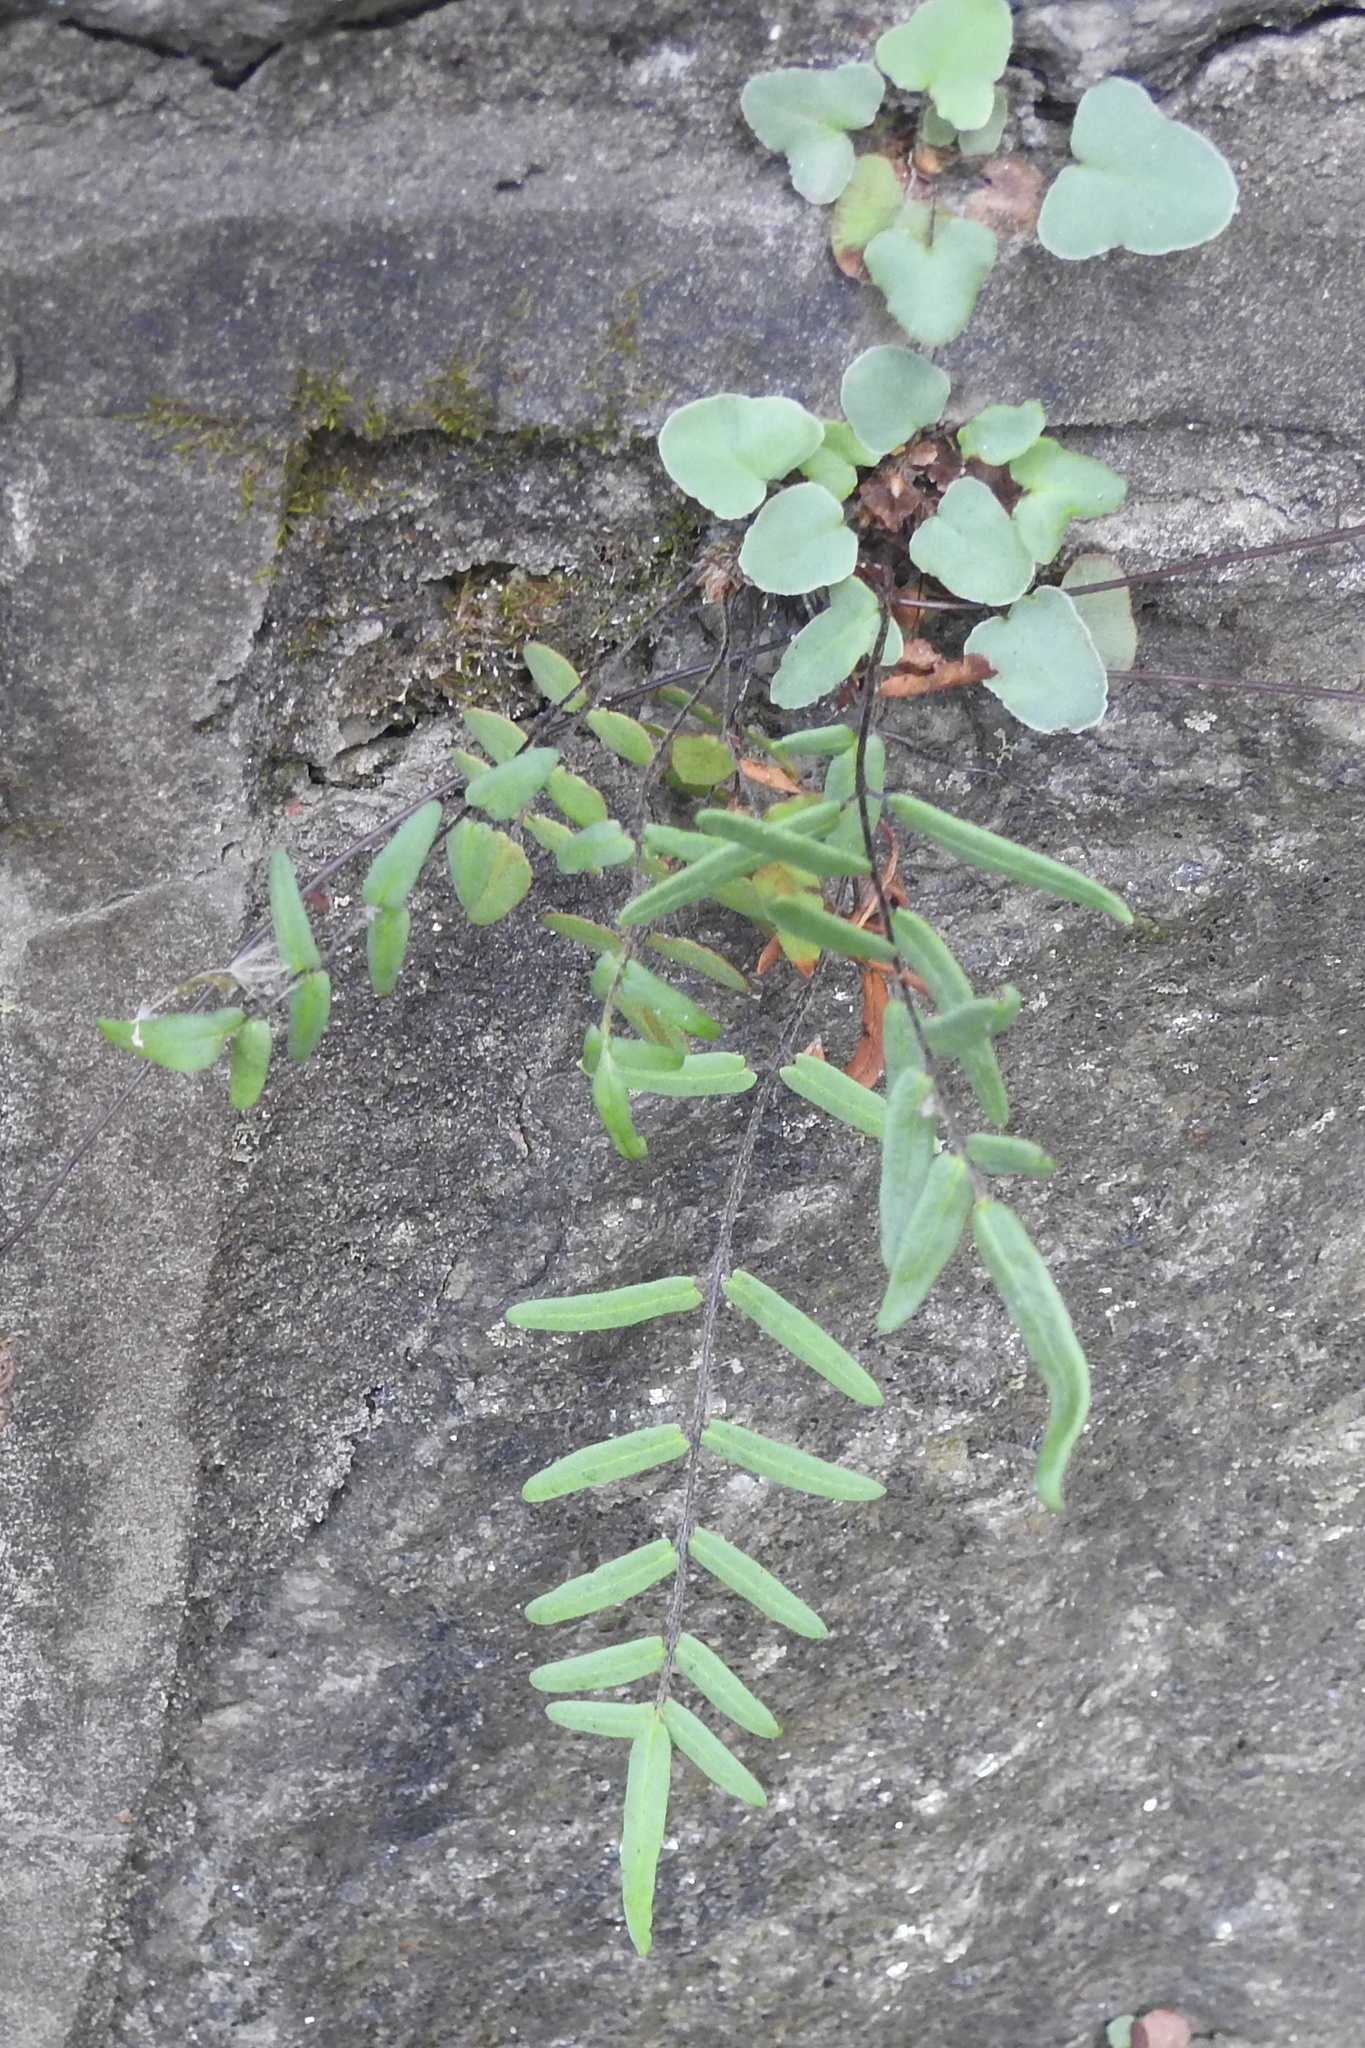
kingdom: Plantae
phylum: Tracheophyta
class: Polypodiopsida
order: Polypodiales
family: Pteridaceae
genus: Pellaea
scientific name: Pellaea atropurpurea
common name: Hairy cliffbrake
